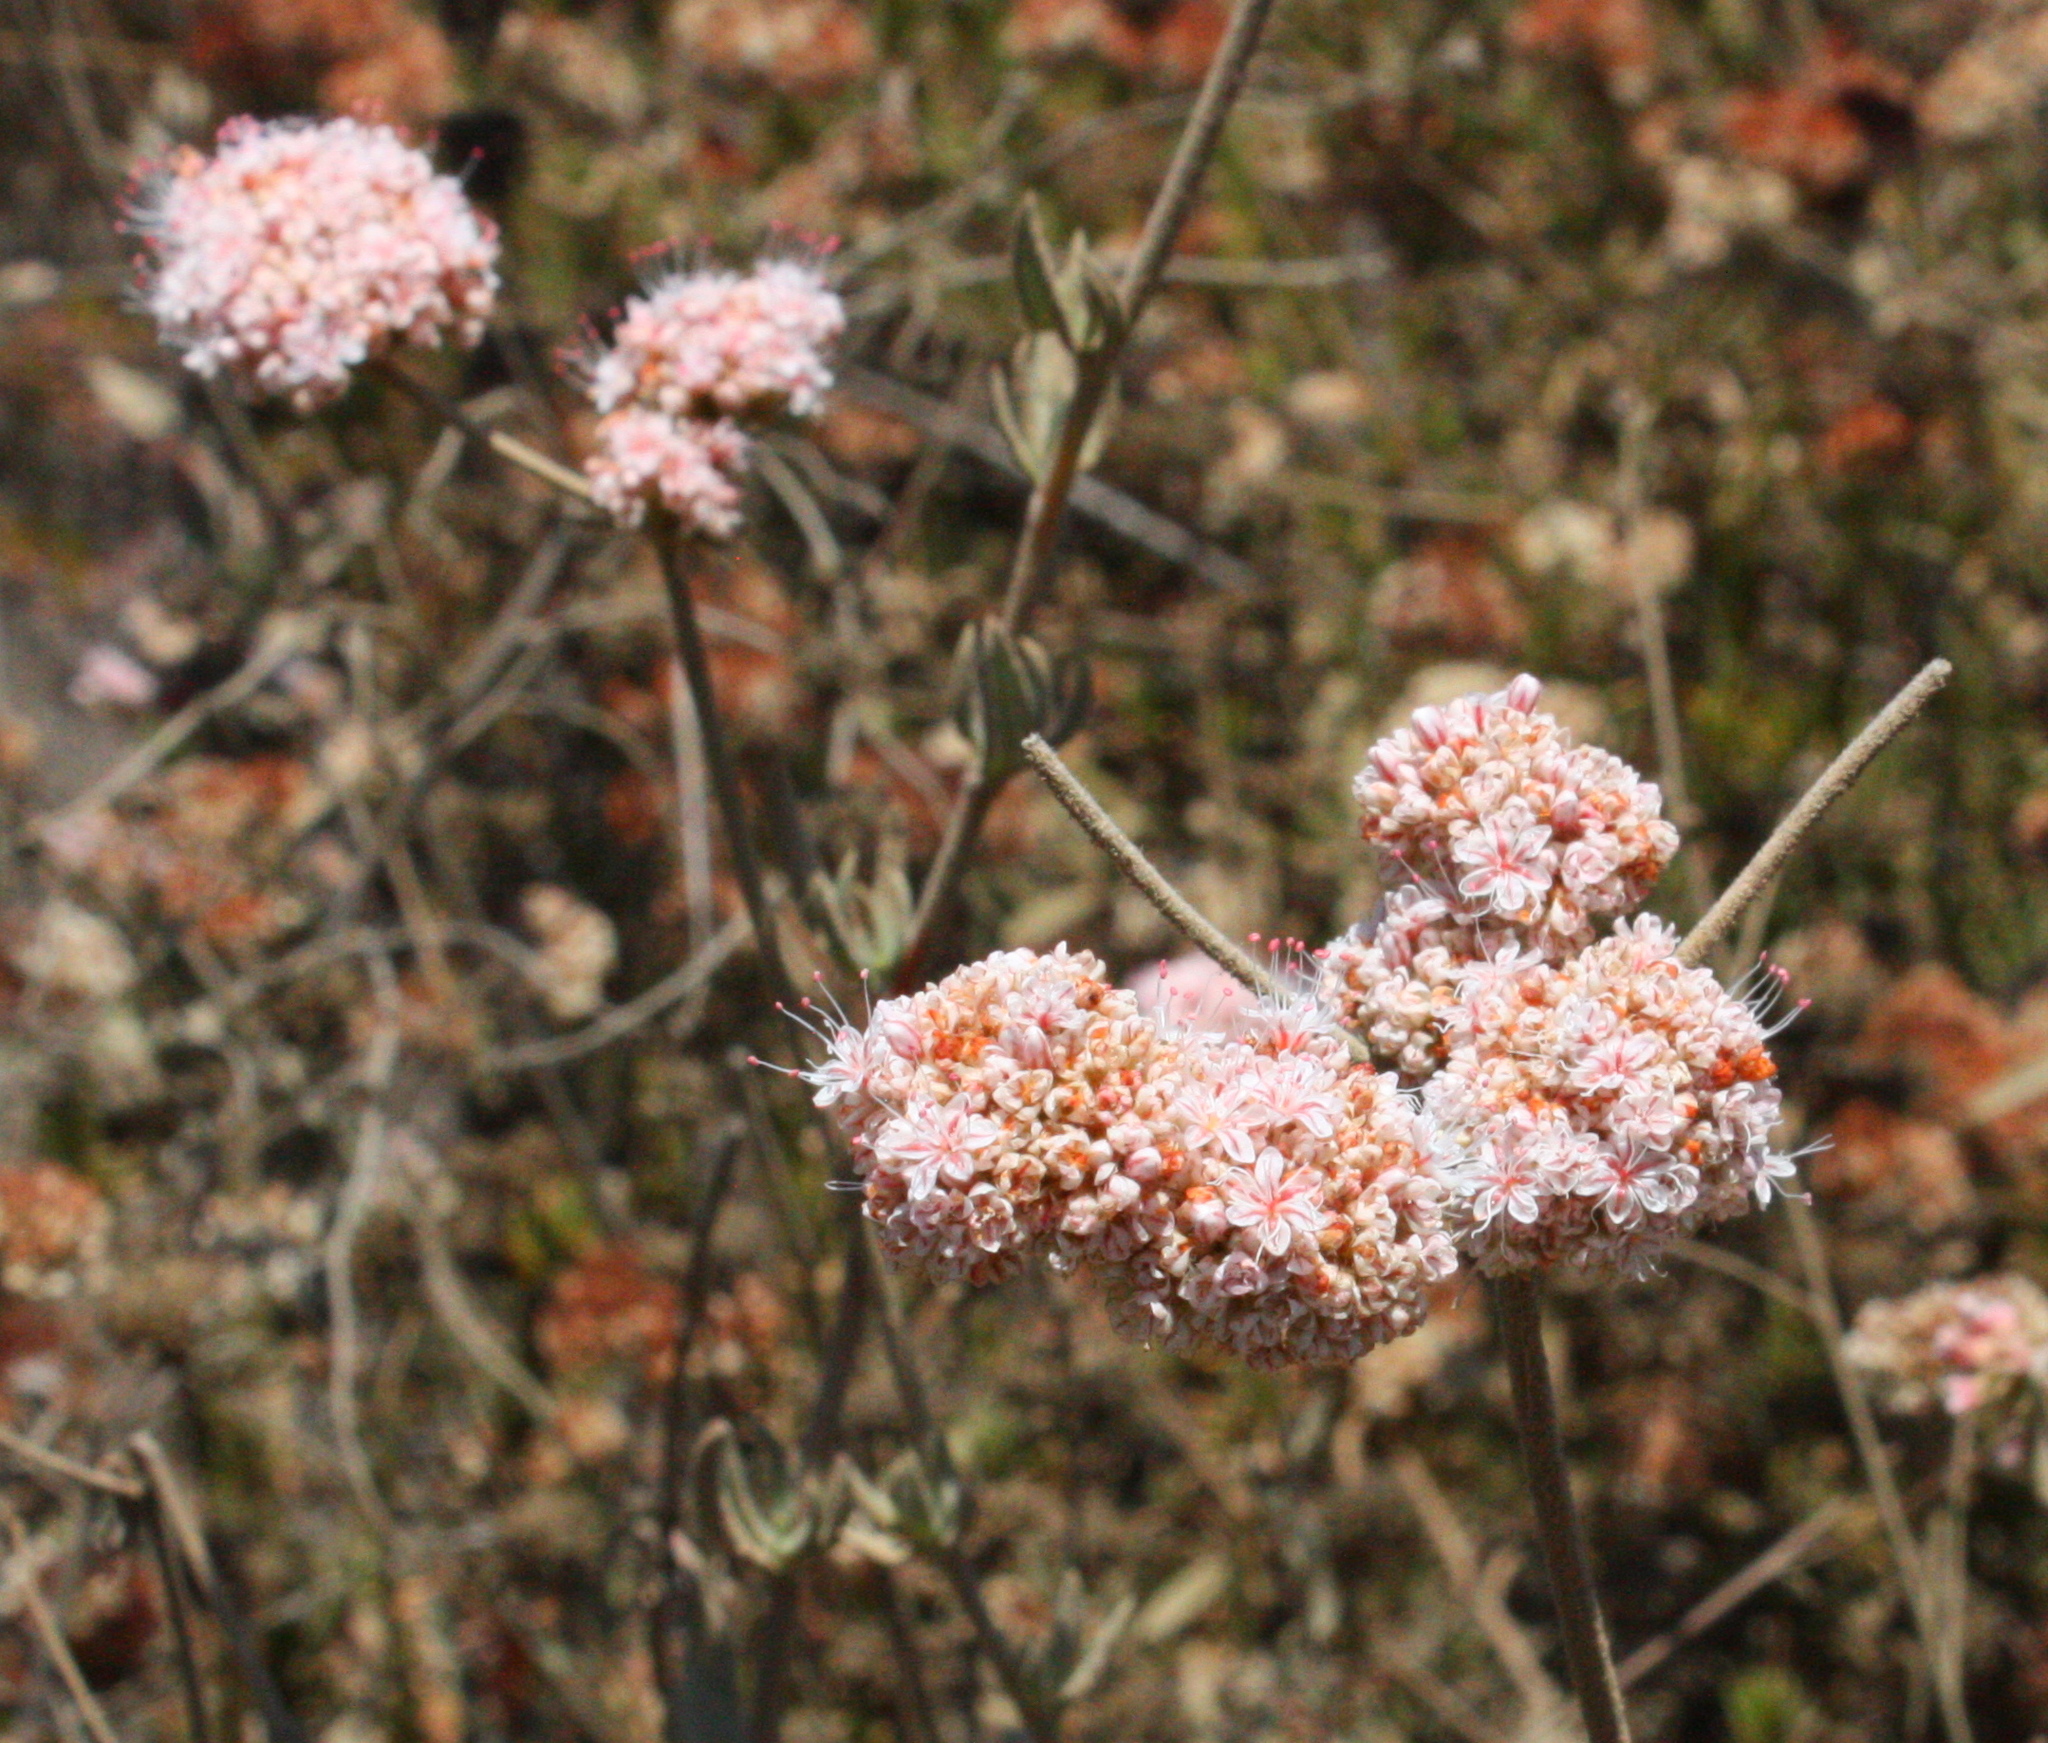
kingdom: Plantae
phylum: Tracheophyta
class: Magnoliopsida
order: Caryophyllales
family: Polygonaceae
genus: Eriogonum
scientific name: Eriogonum fasciculatum
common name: California wild buckwheat
